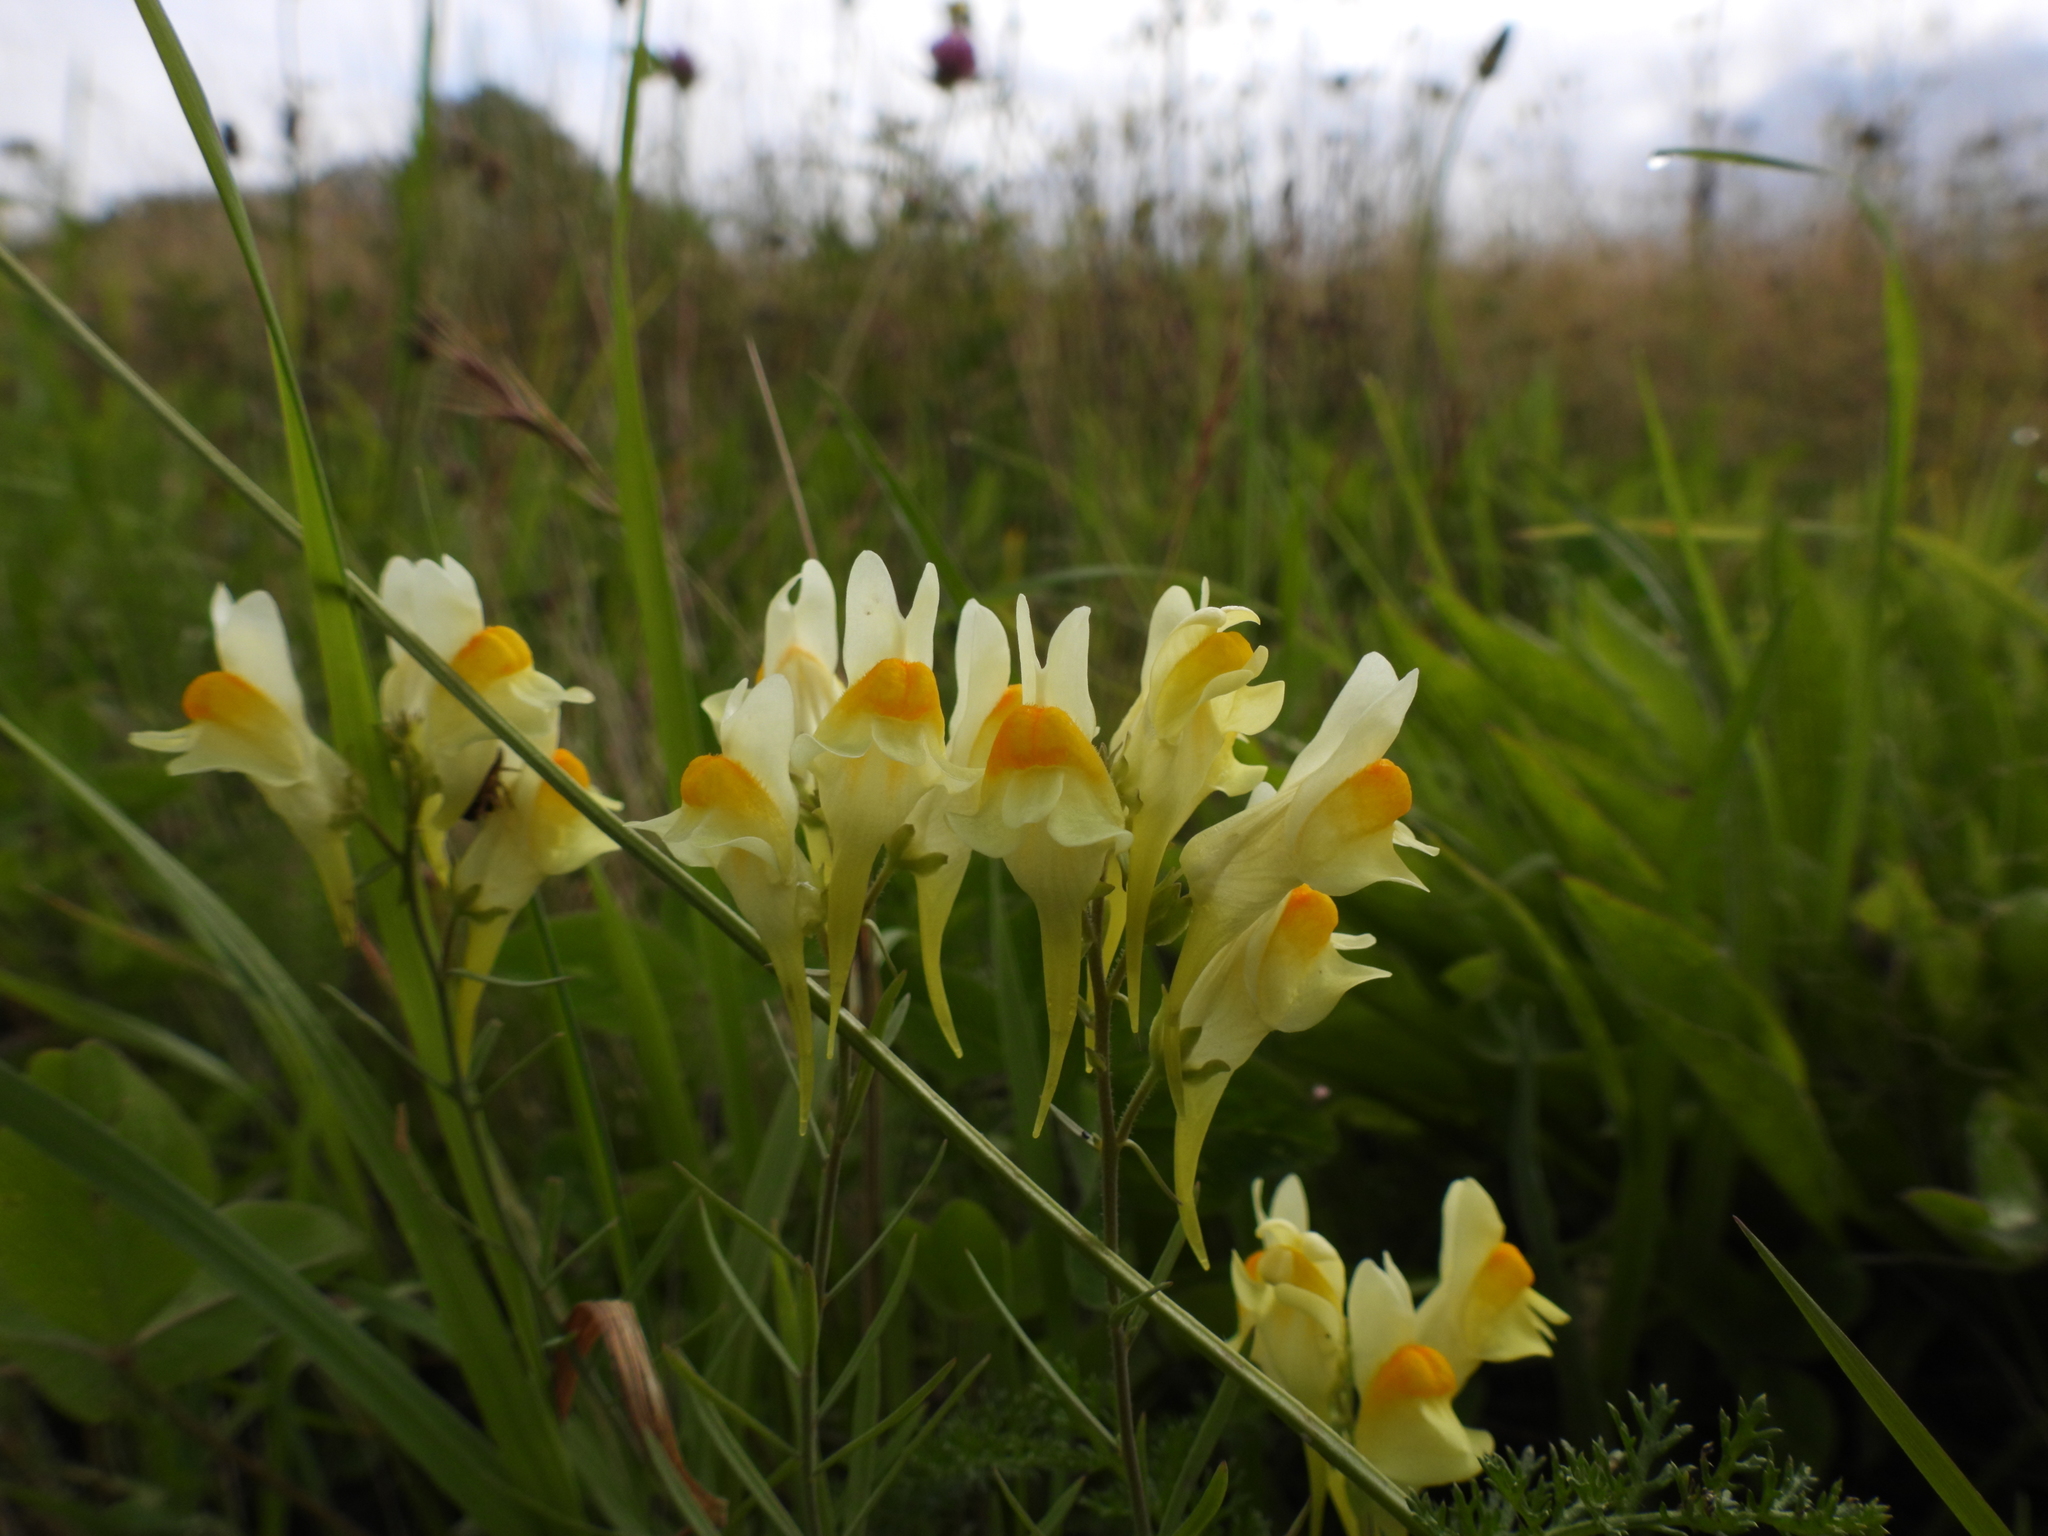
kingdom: Plantae
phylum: Tracheophyta
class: Magnoliopsida
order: Lamiales
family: Plantaginaceae
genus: Linaria
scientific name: Linaria vulgaris
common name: Butter and eggs
